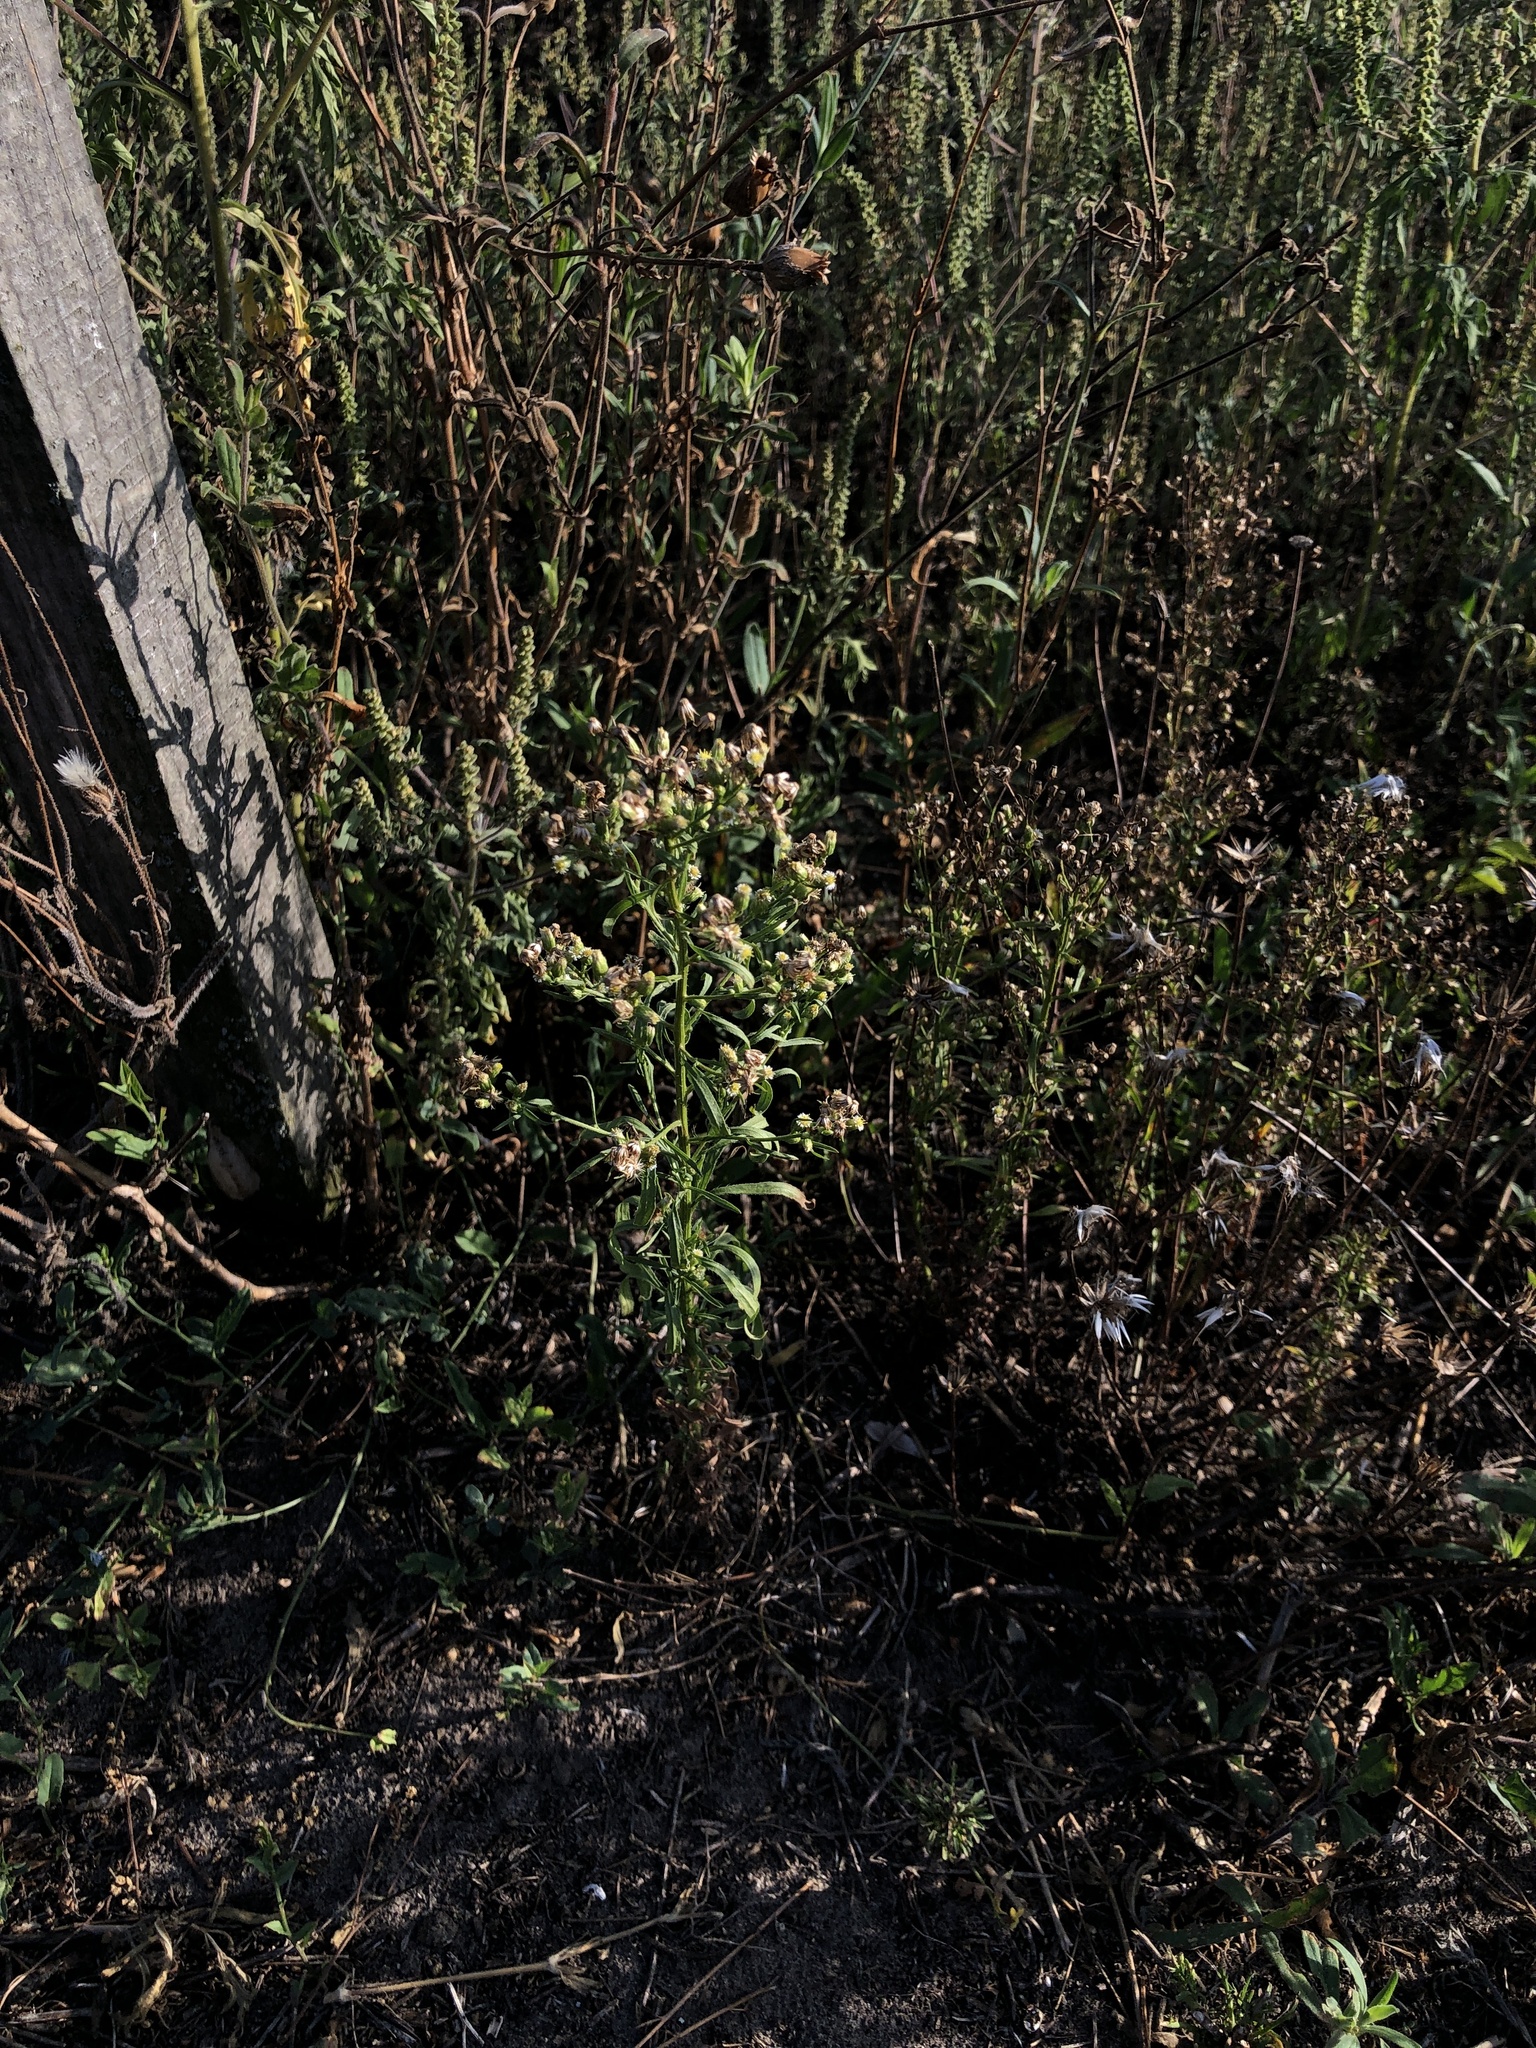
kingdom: Plantae
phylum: Tracheophyta
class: Magnoliopsida
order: Asterales
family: Asteraceae
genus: Erigeron
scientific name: Erigeron canadensis
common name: Canadian fleabane
